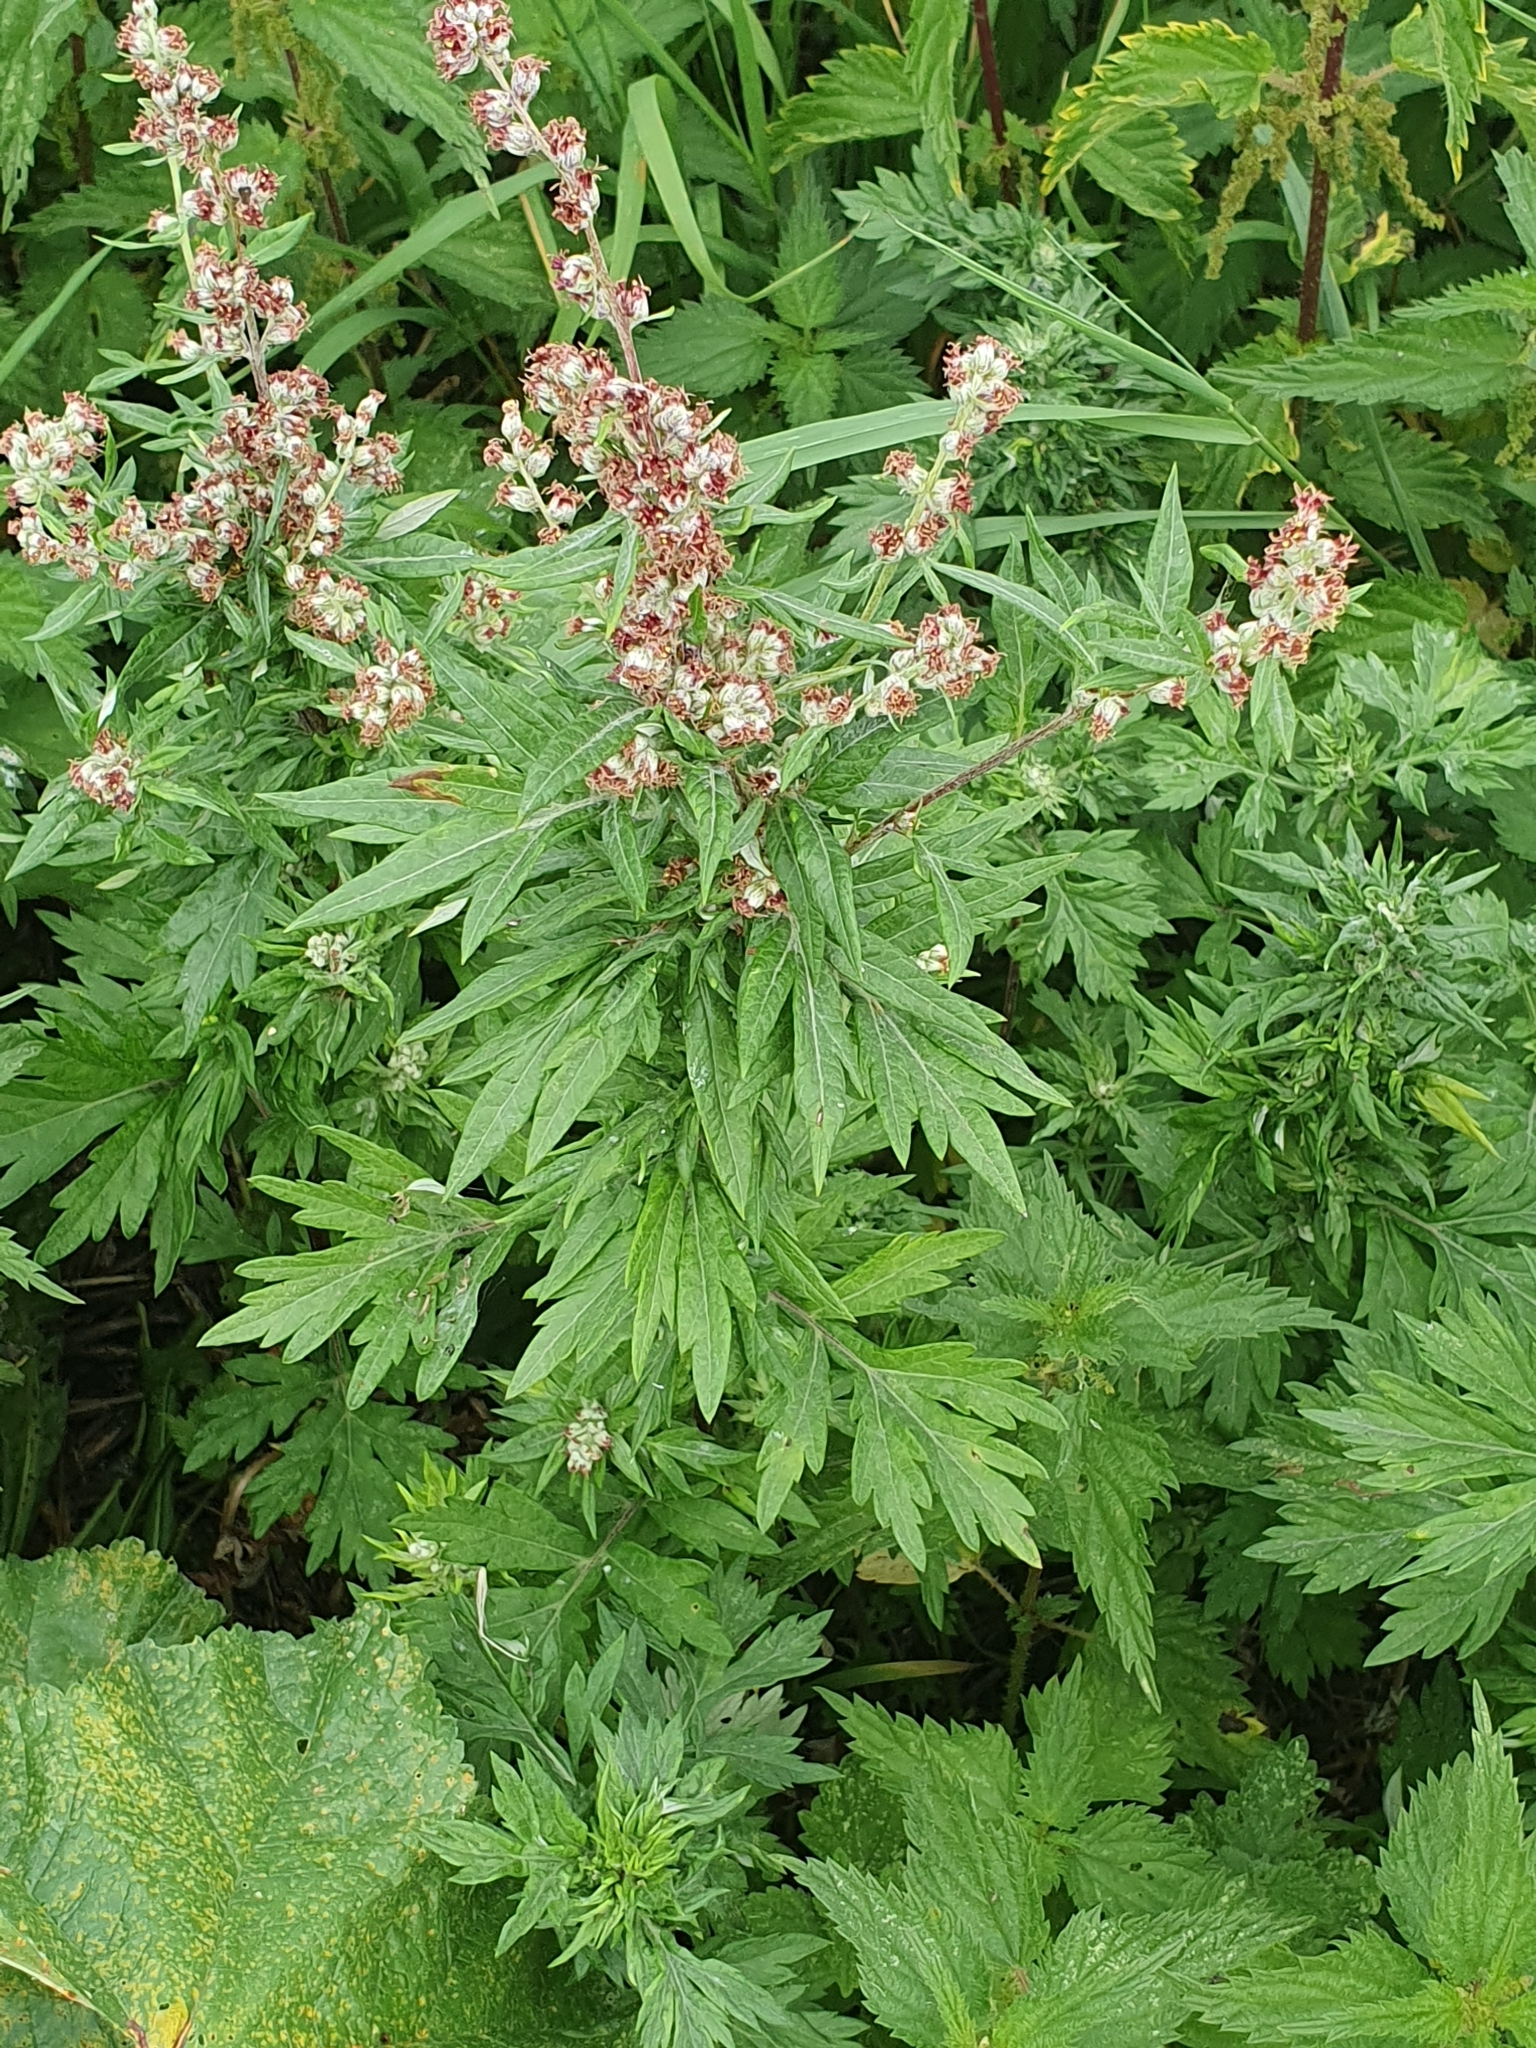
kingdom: Plantae
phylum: Tracheophyta
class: Magnoliopsida
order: Asterales
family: Asteraceae
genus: Artemisia
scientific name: Artemisia vulgaris
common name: Mugwort
